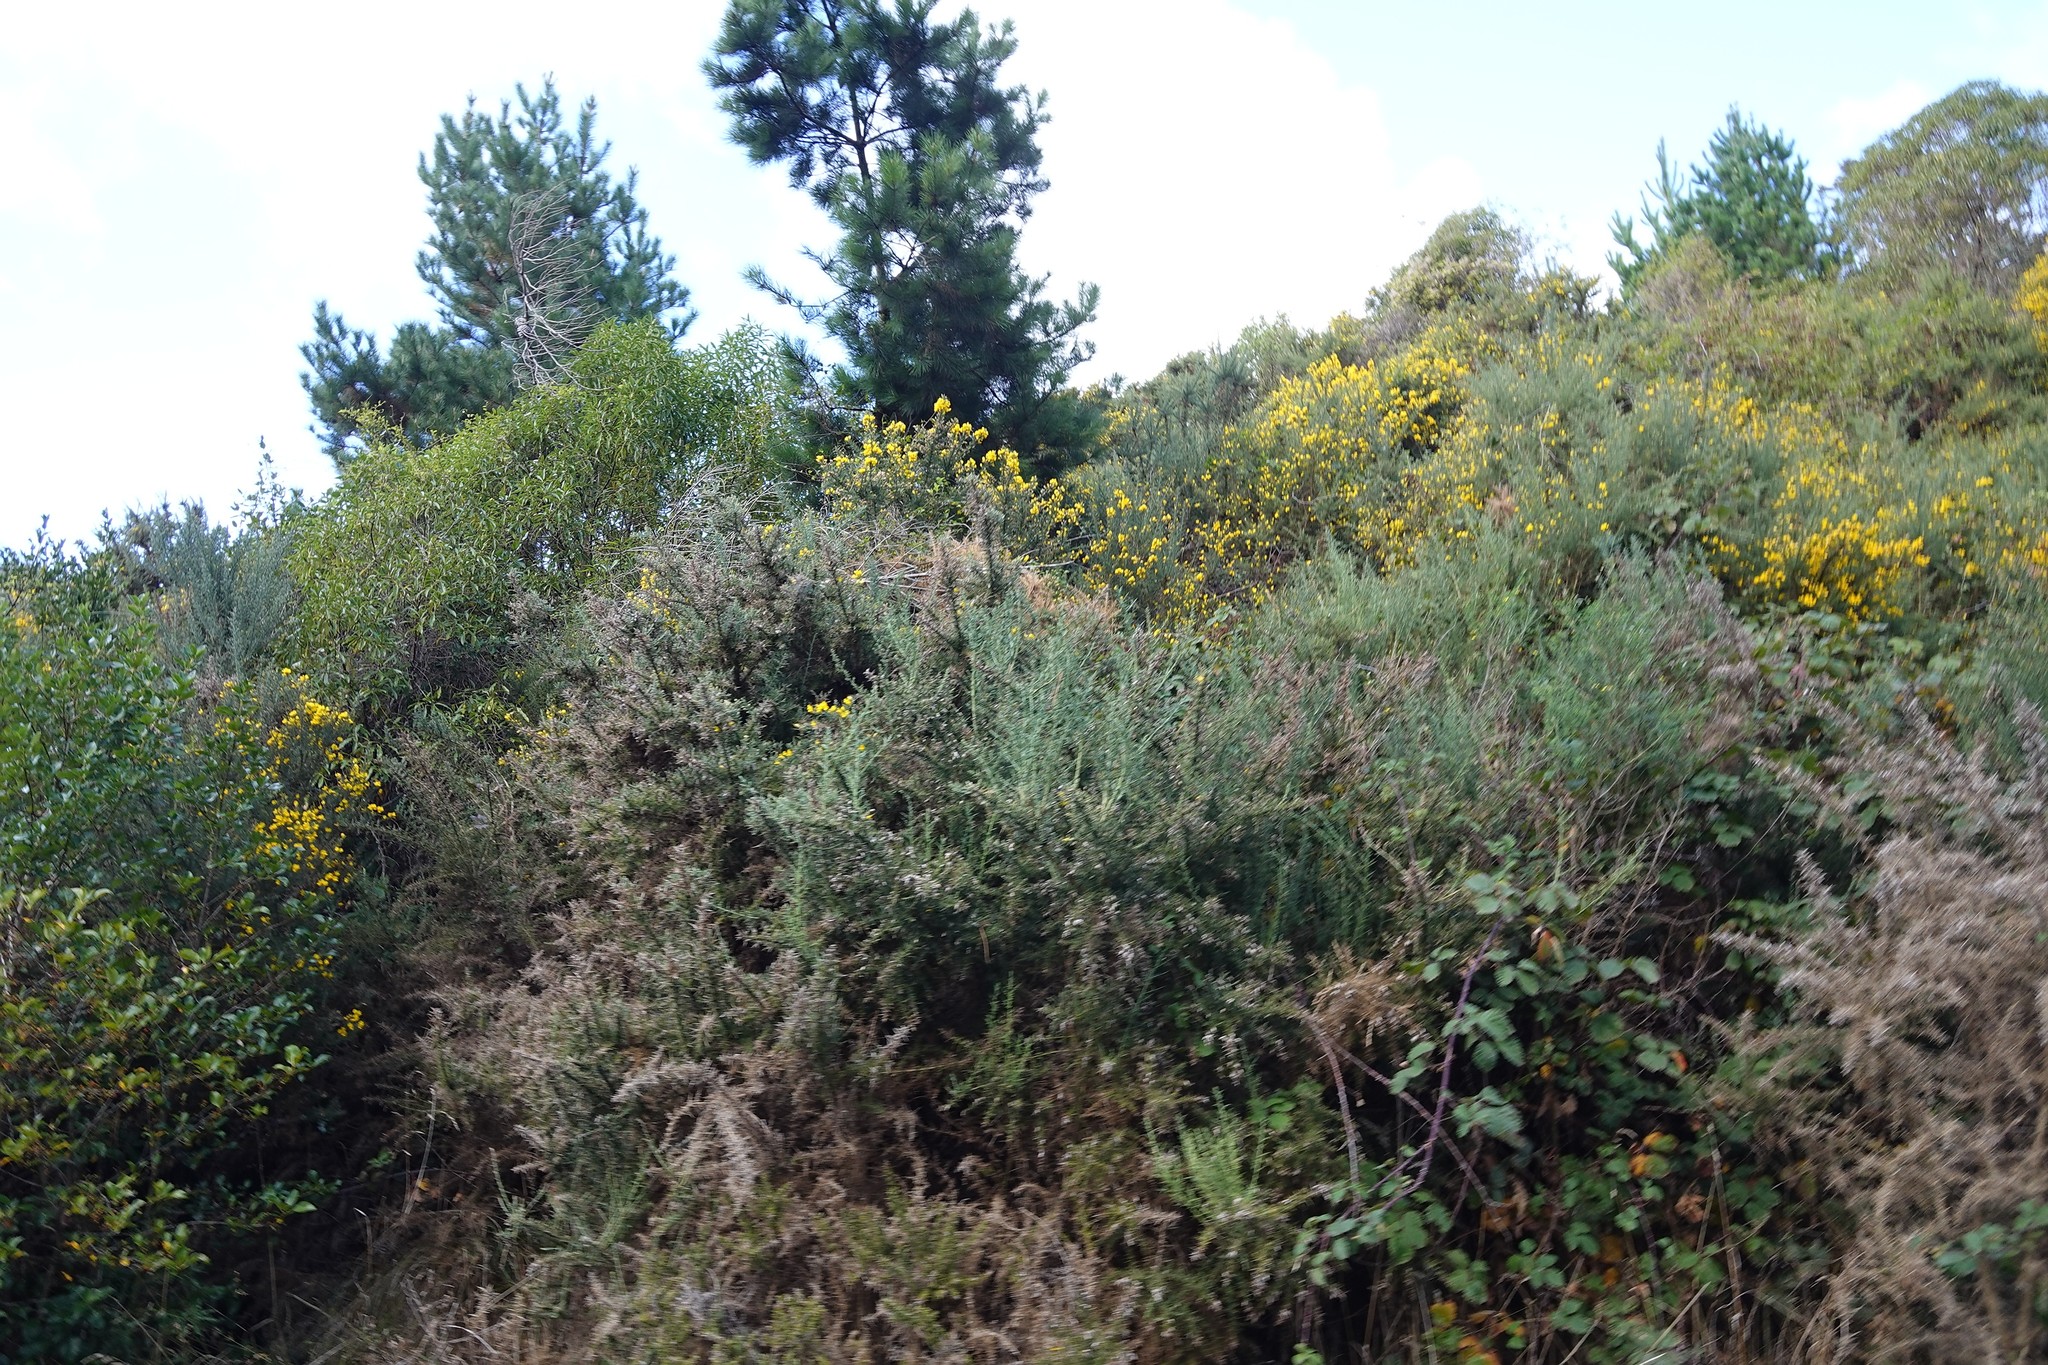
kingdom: Plantae
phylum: Tracheophyta
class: Pinopsida
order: Pinales
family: Pinaceae
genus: Pinus
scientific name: Pinus radiata
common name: Monterey pine
